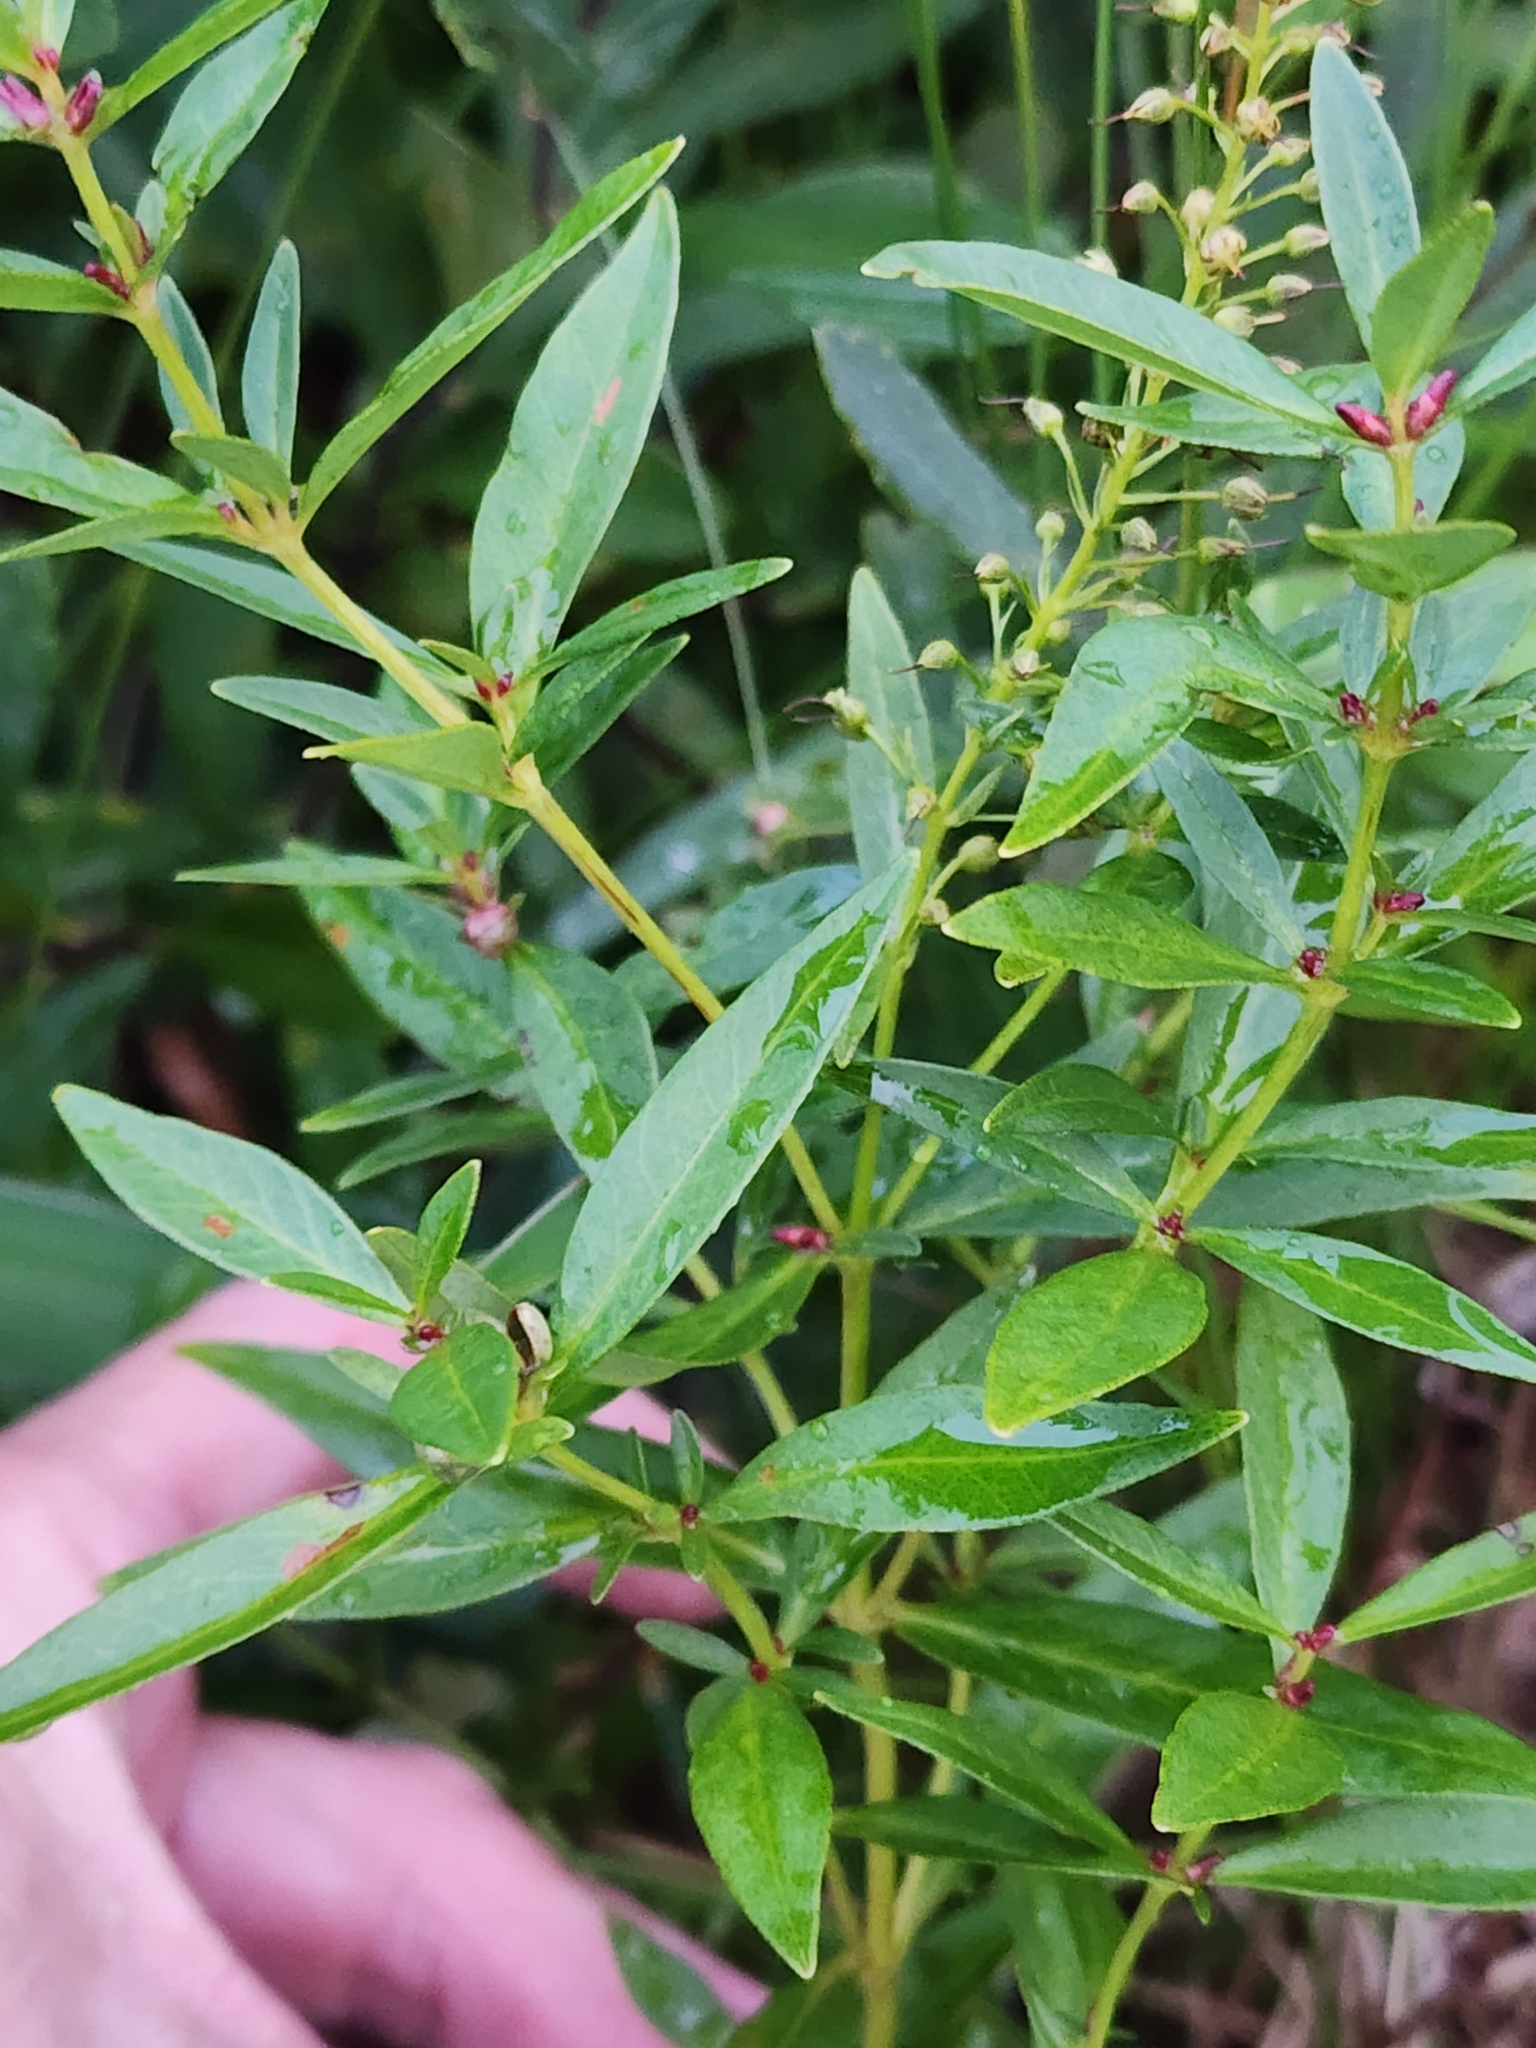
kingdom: Plantae
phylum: Tracheophyta
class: Magnoliopsida
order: Ericales
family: Primulaceae
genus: Lysimachia
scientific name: Lysimachia terrestris
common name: Lake loosestrife
